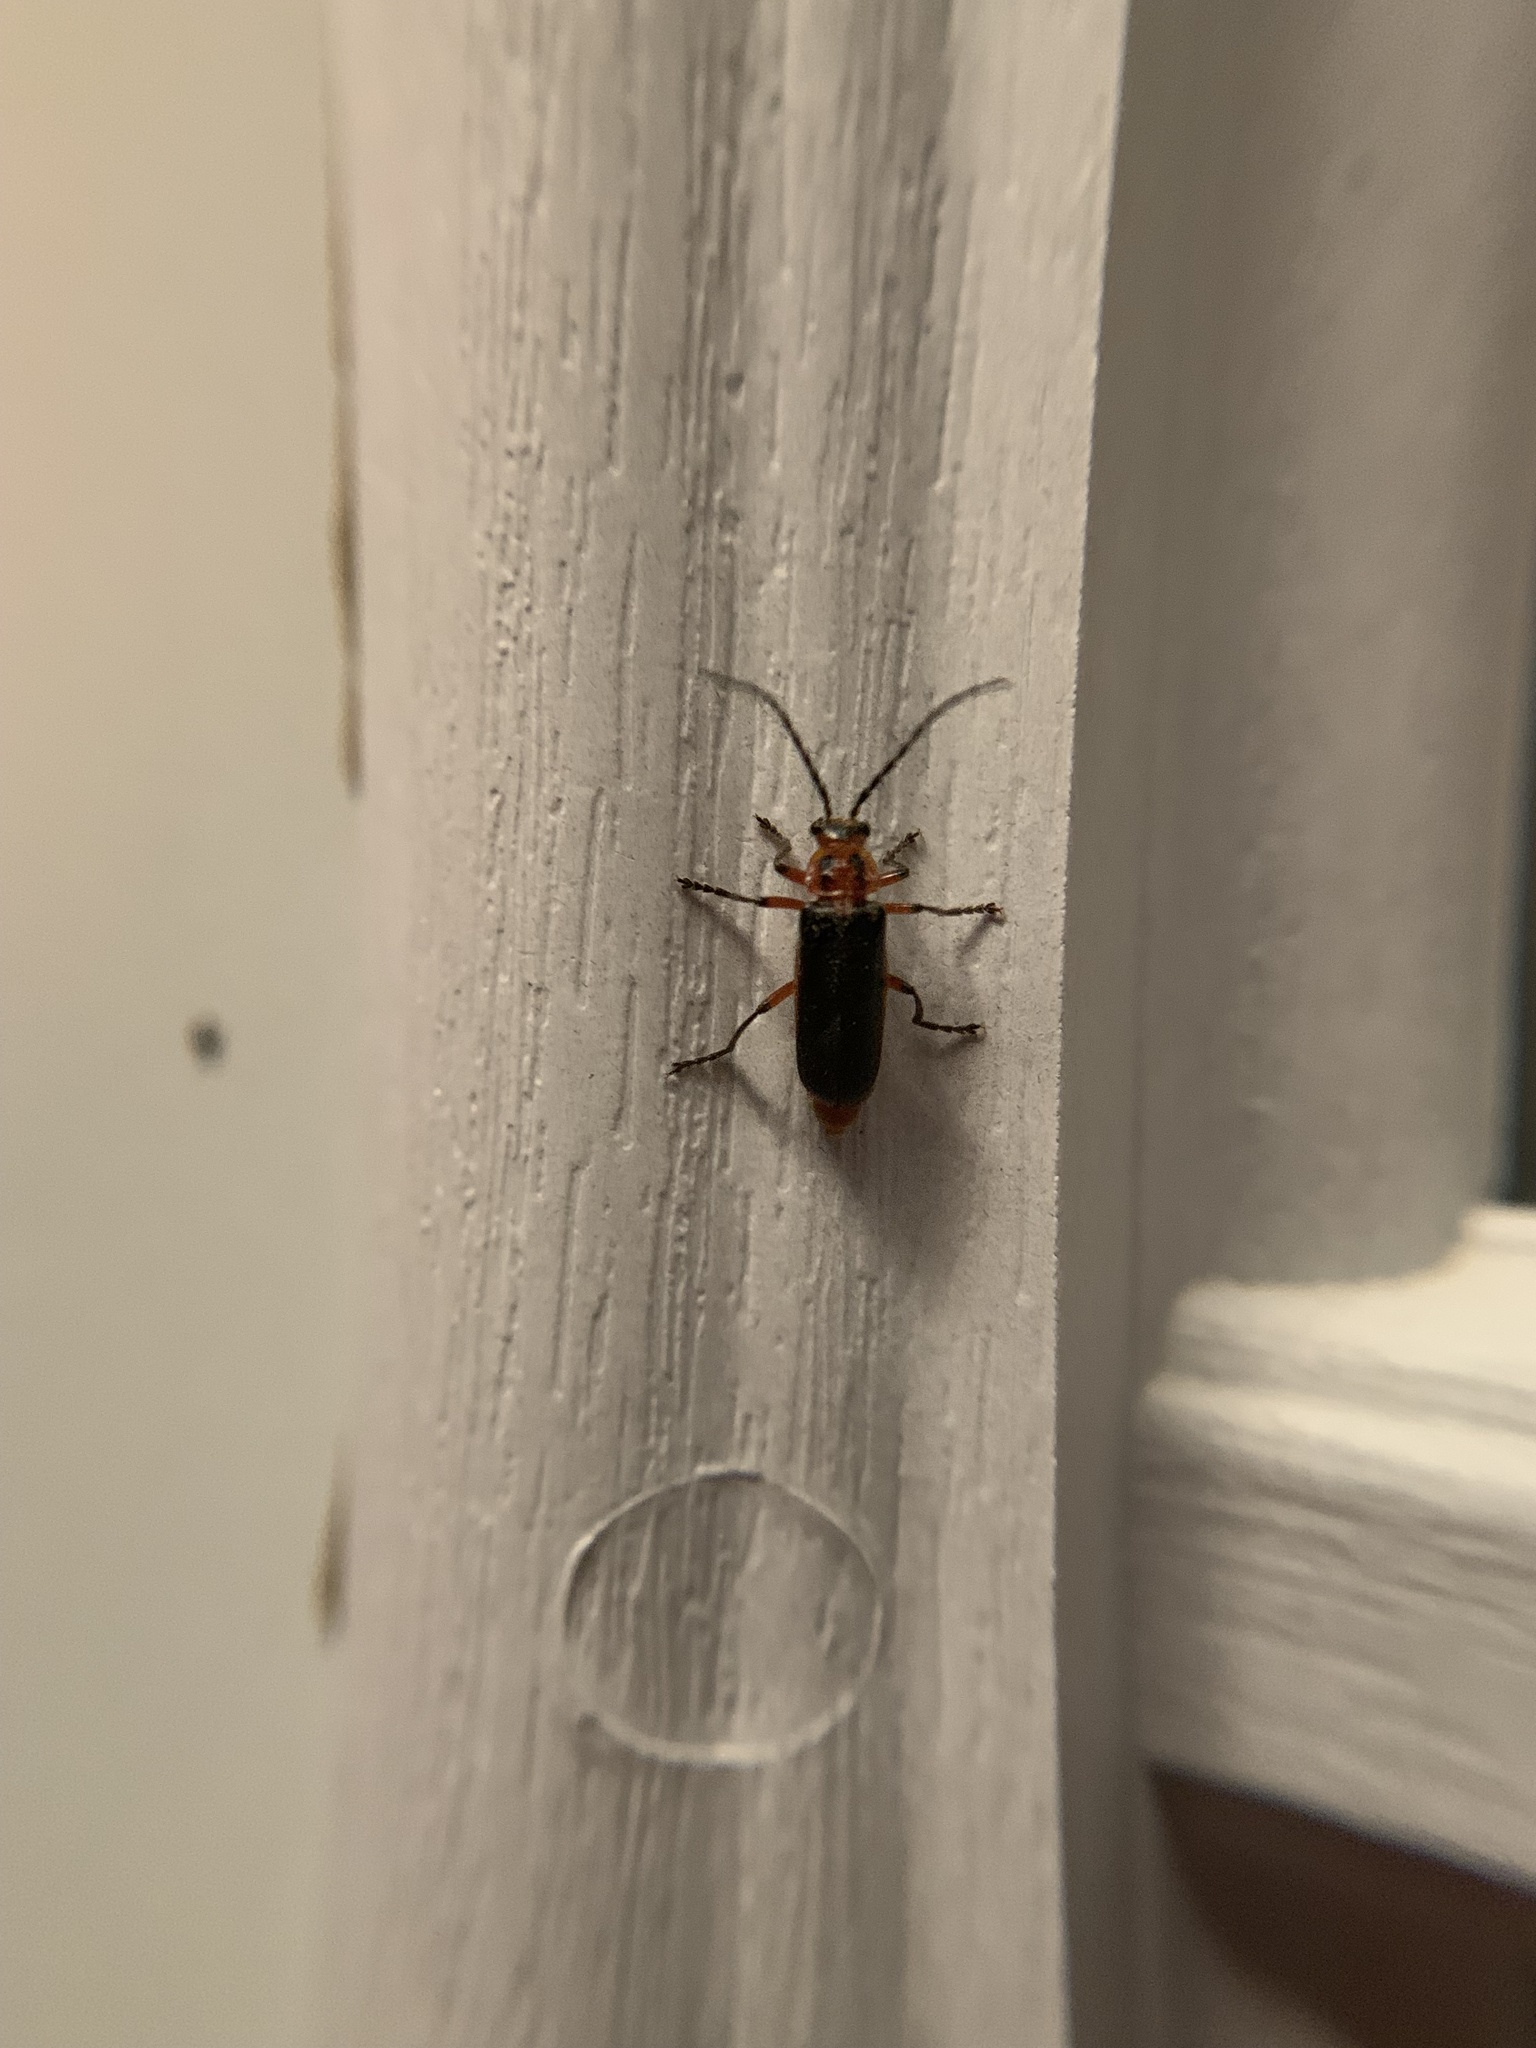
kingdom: Animalia
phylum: Arthropoda
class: Insecta
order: Coleoptera
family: Cantharidae
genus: Atalantycha
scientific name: Atalantycha bilineata
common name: Two-lined leatherwing
